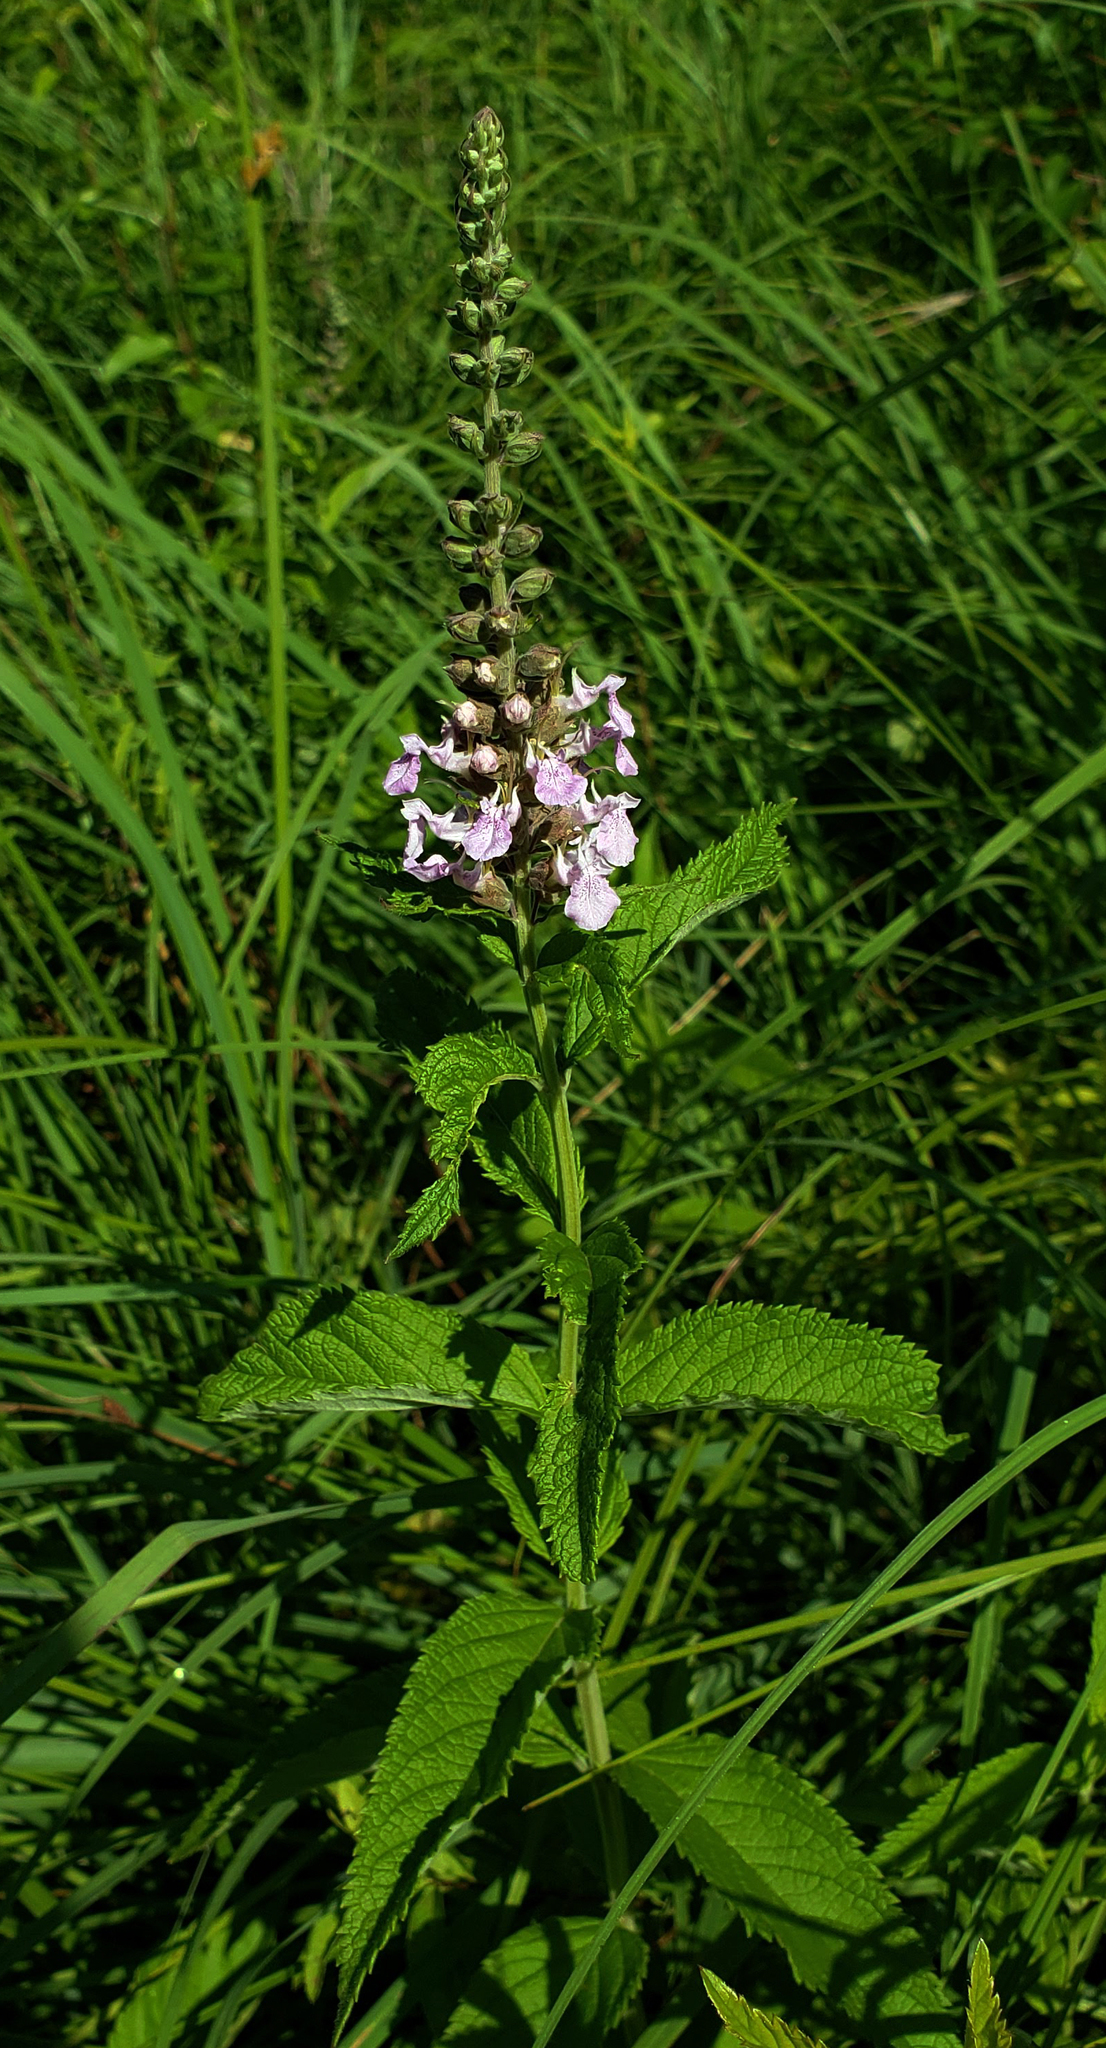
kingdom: Plantae
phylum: Tracheophyta
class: Magnoliopsida
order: Lamiales
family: Lamiaceae
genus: Teucrium
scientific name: Teucrium canadense
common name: American germander
